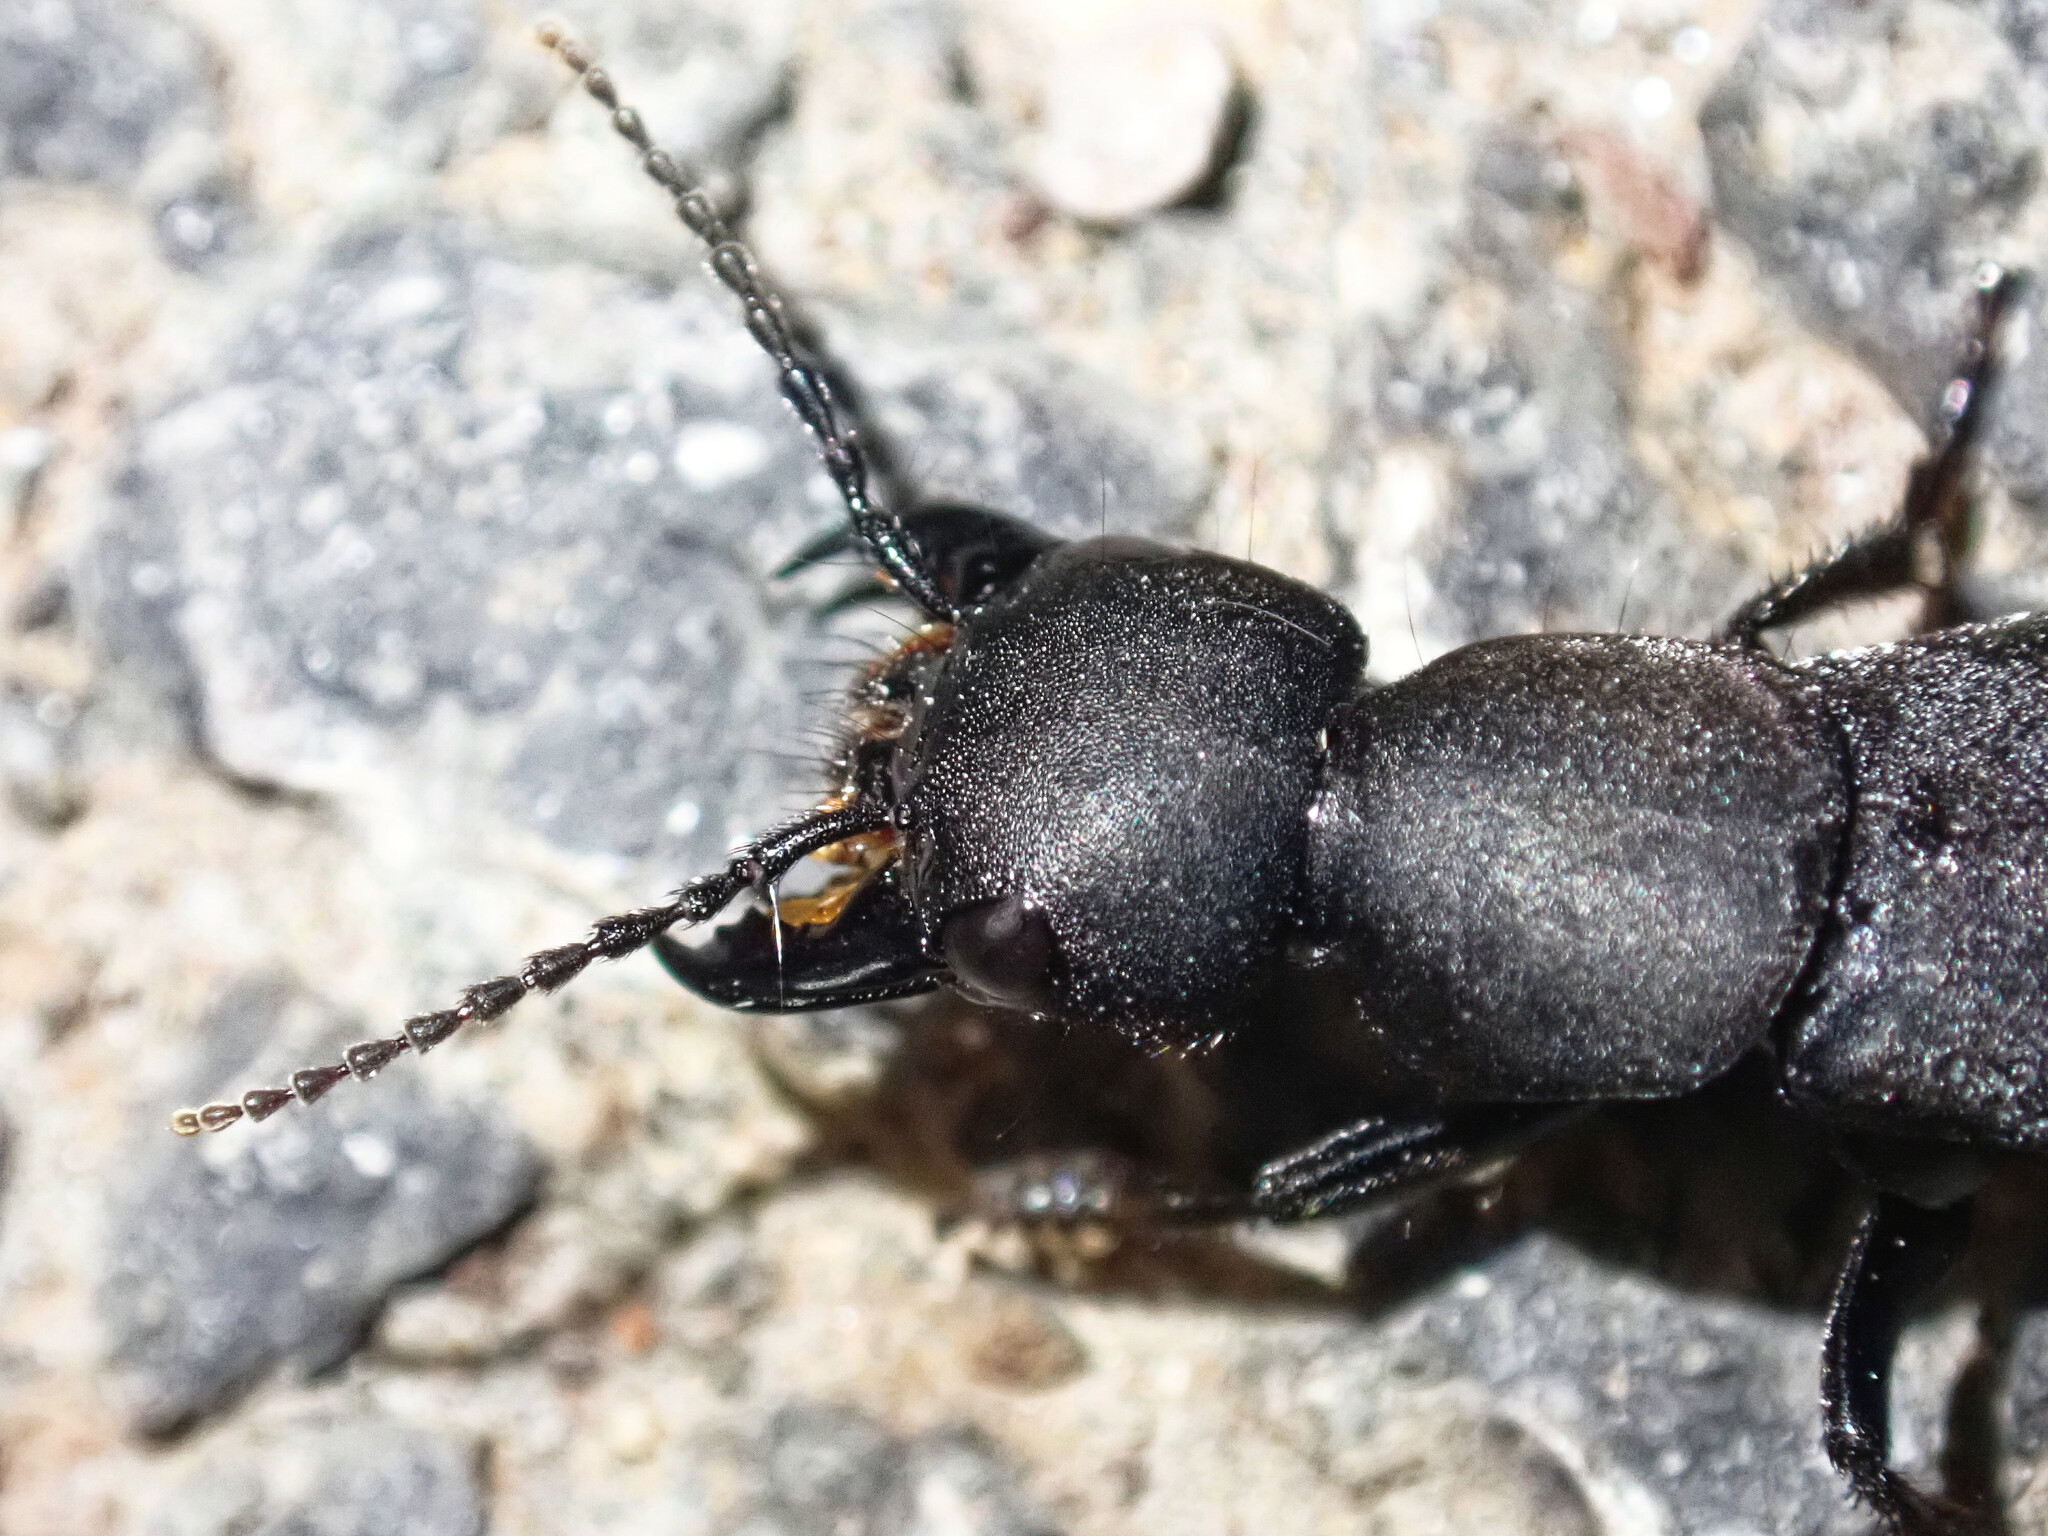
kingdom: Animalia
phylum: Arthropoda
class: Insecta
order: Coleoptera
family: Staphylinidae
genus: Ocypus
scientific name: Ocypus olens
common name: Devil's coach-horse
